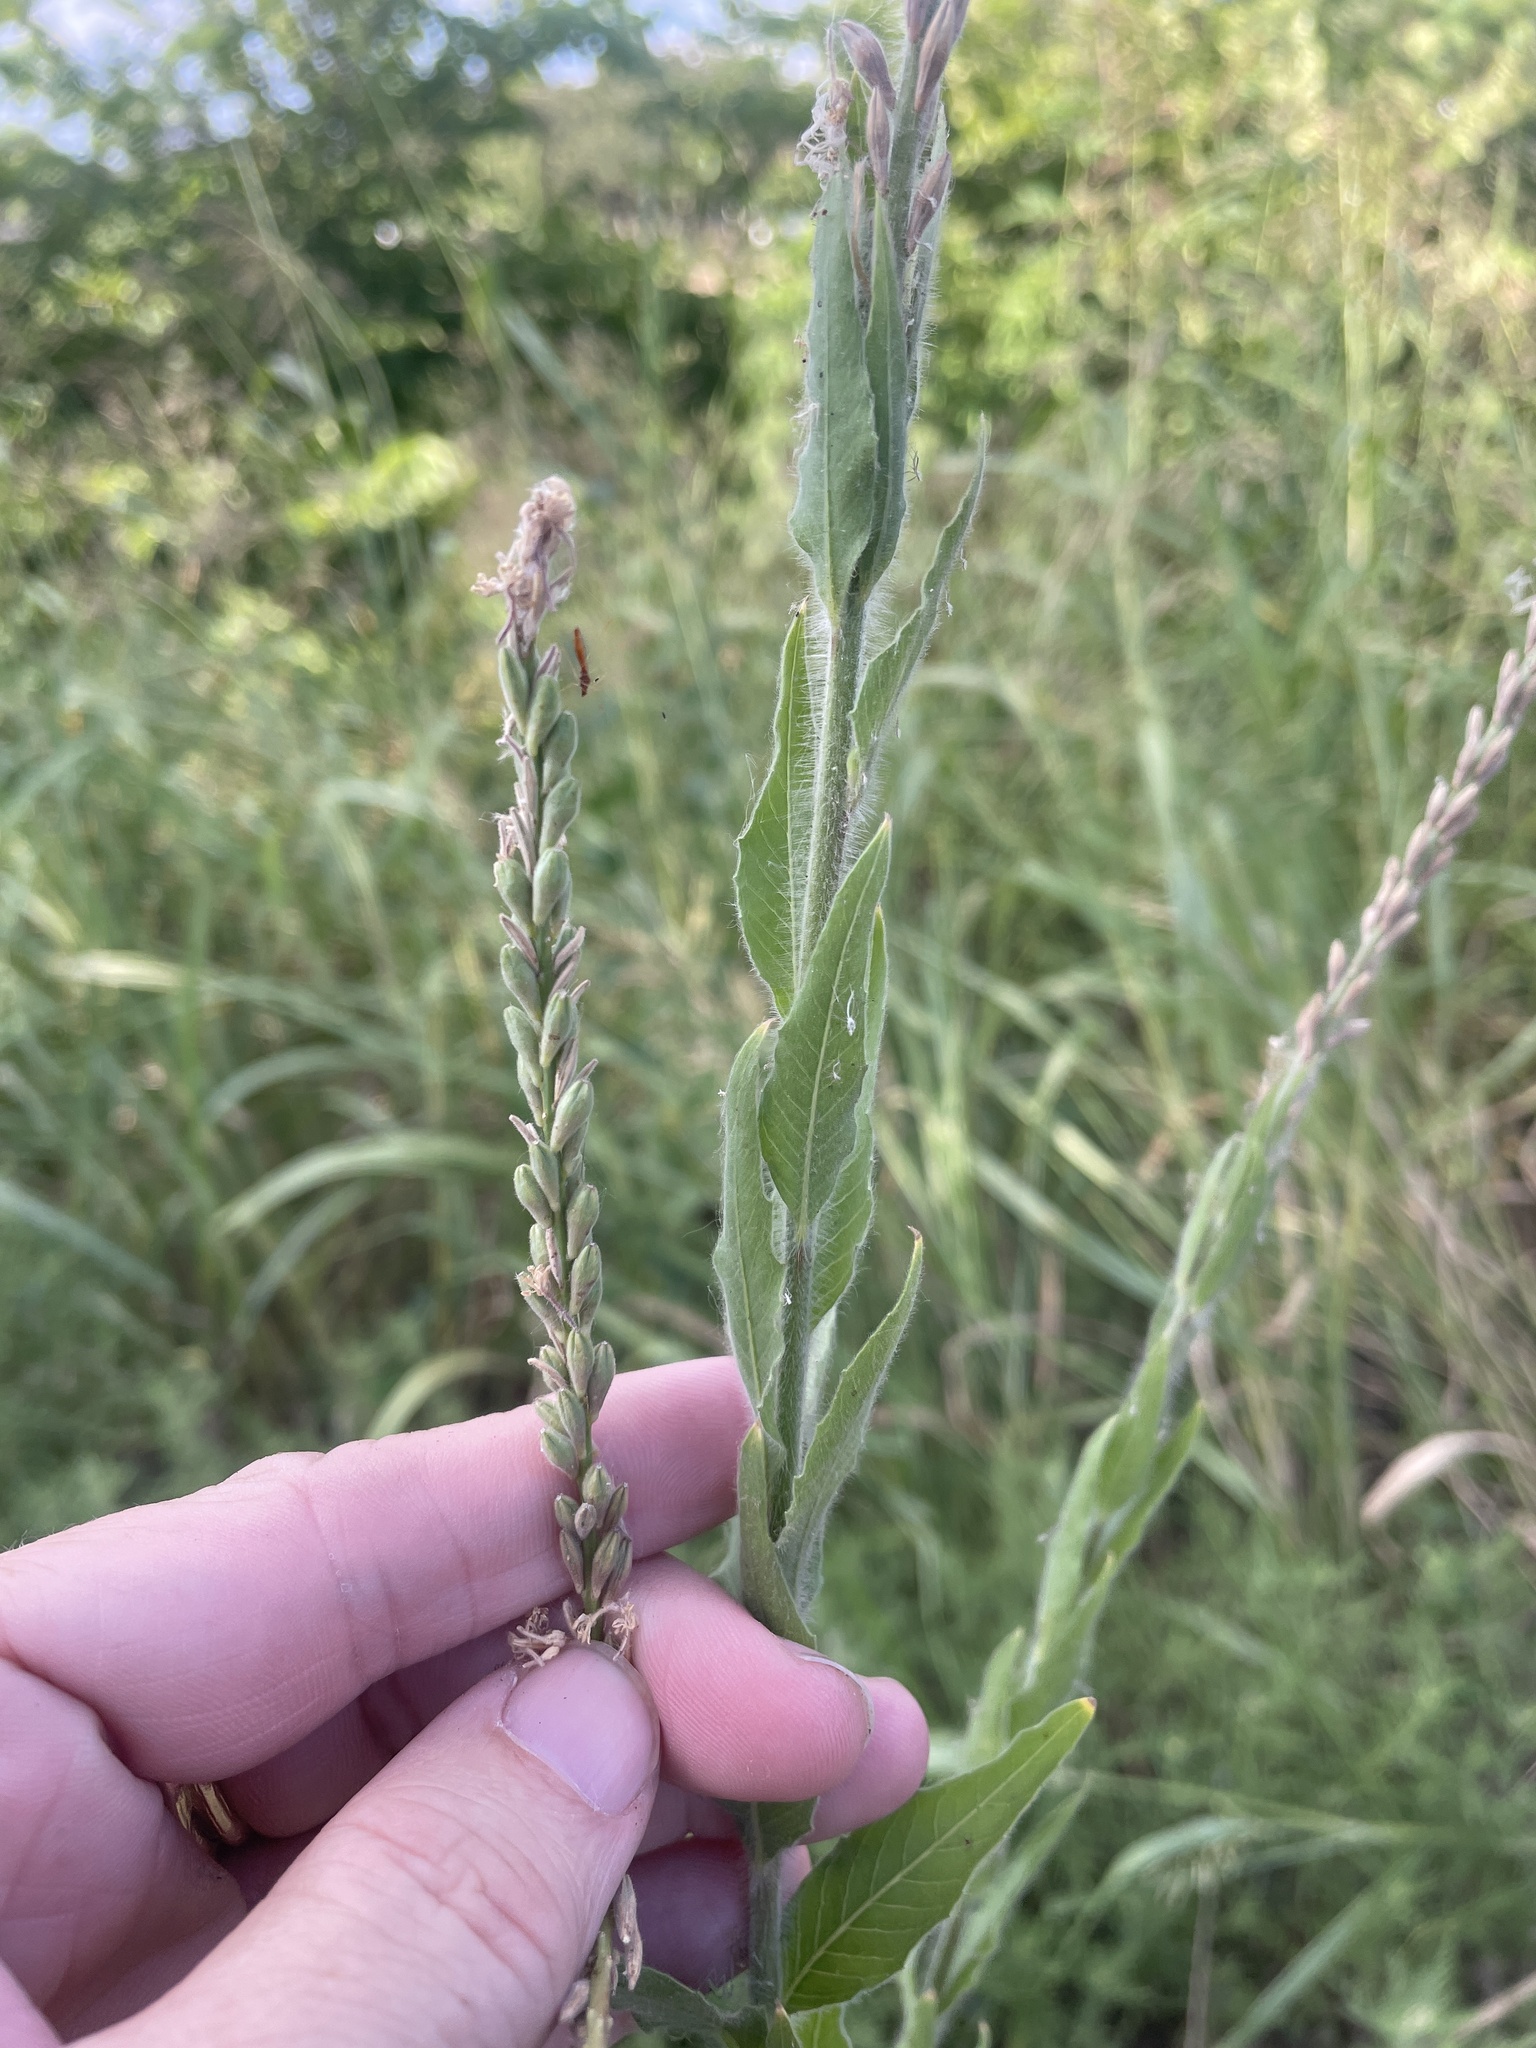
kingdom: Plantae
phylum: Tracheophyta
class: Magnoliopsida
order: Myrtales
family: Onagraceae
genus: Oenothera
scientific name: Oenothera curtiflora
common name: Velvetweed
